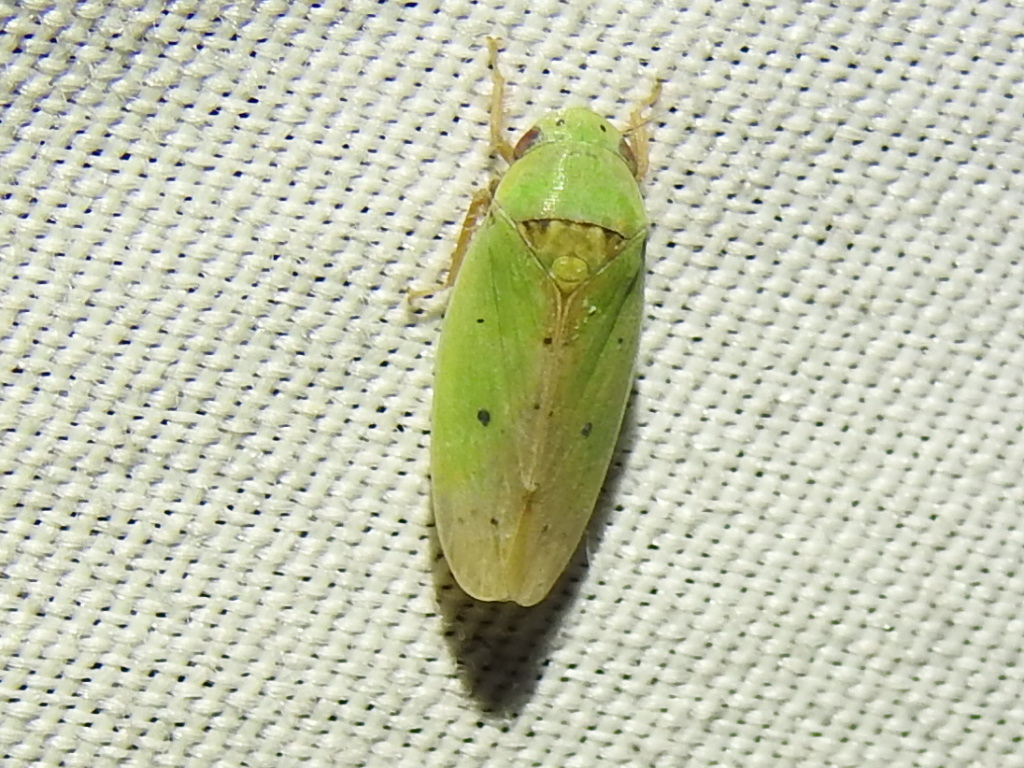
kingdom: Animalia
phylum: Arthropoda
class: Insecta
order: Hemiptera
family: Cicadellidae
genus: Ponana
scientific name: Ponana
